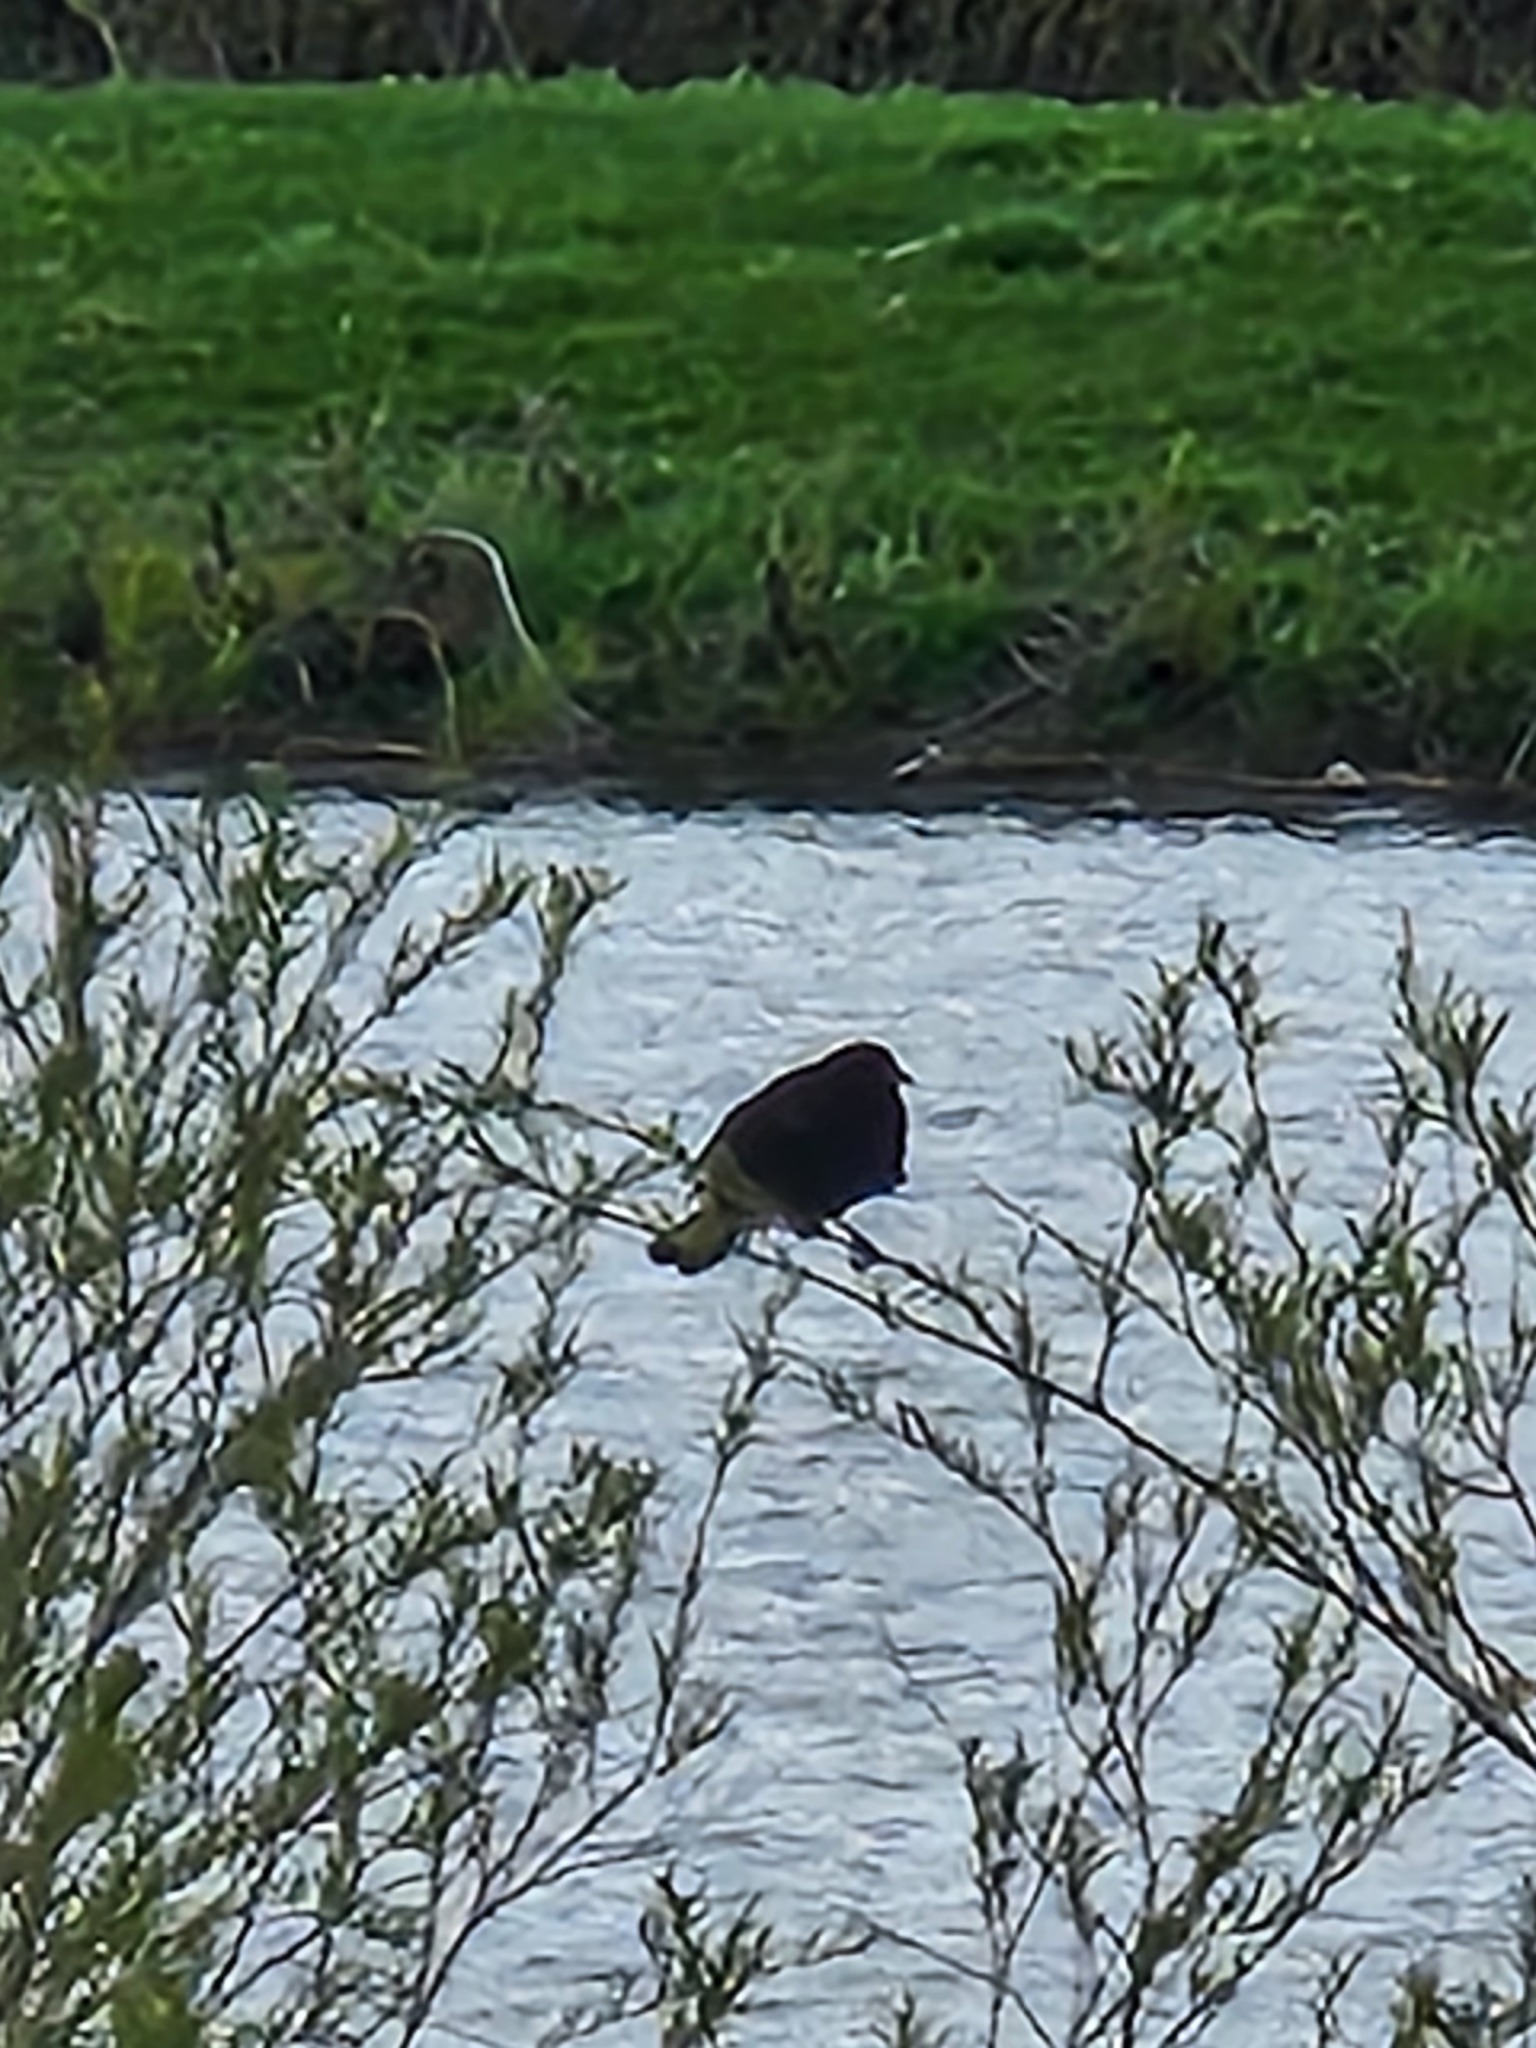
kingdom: Animalia
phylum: Chordata
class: Aves
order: Passeriformes
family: Icteridae
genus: Agelaius
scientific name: Agelaius phoeniceus
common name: Red-winged blackbird
